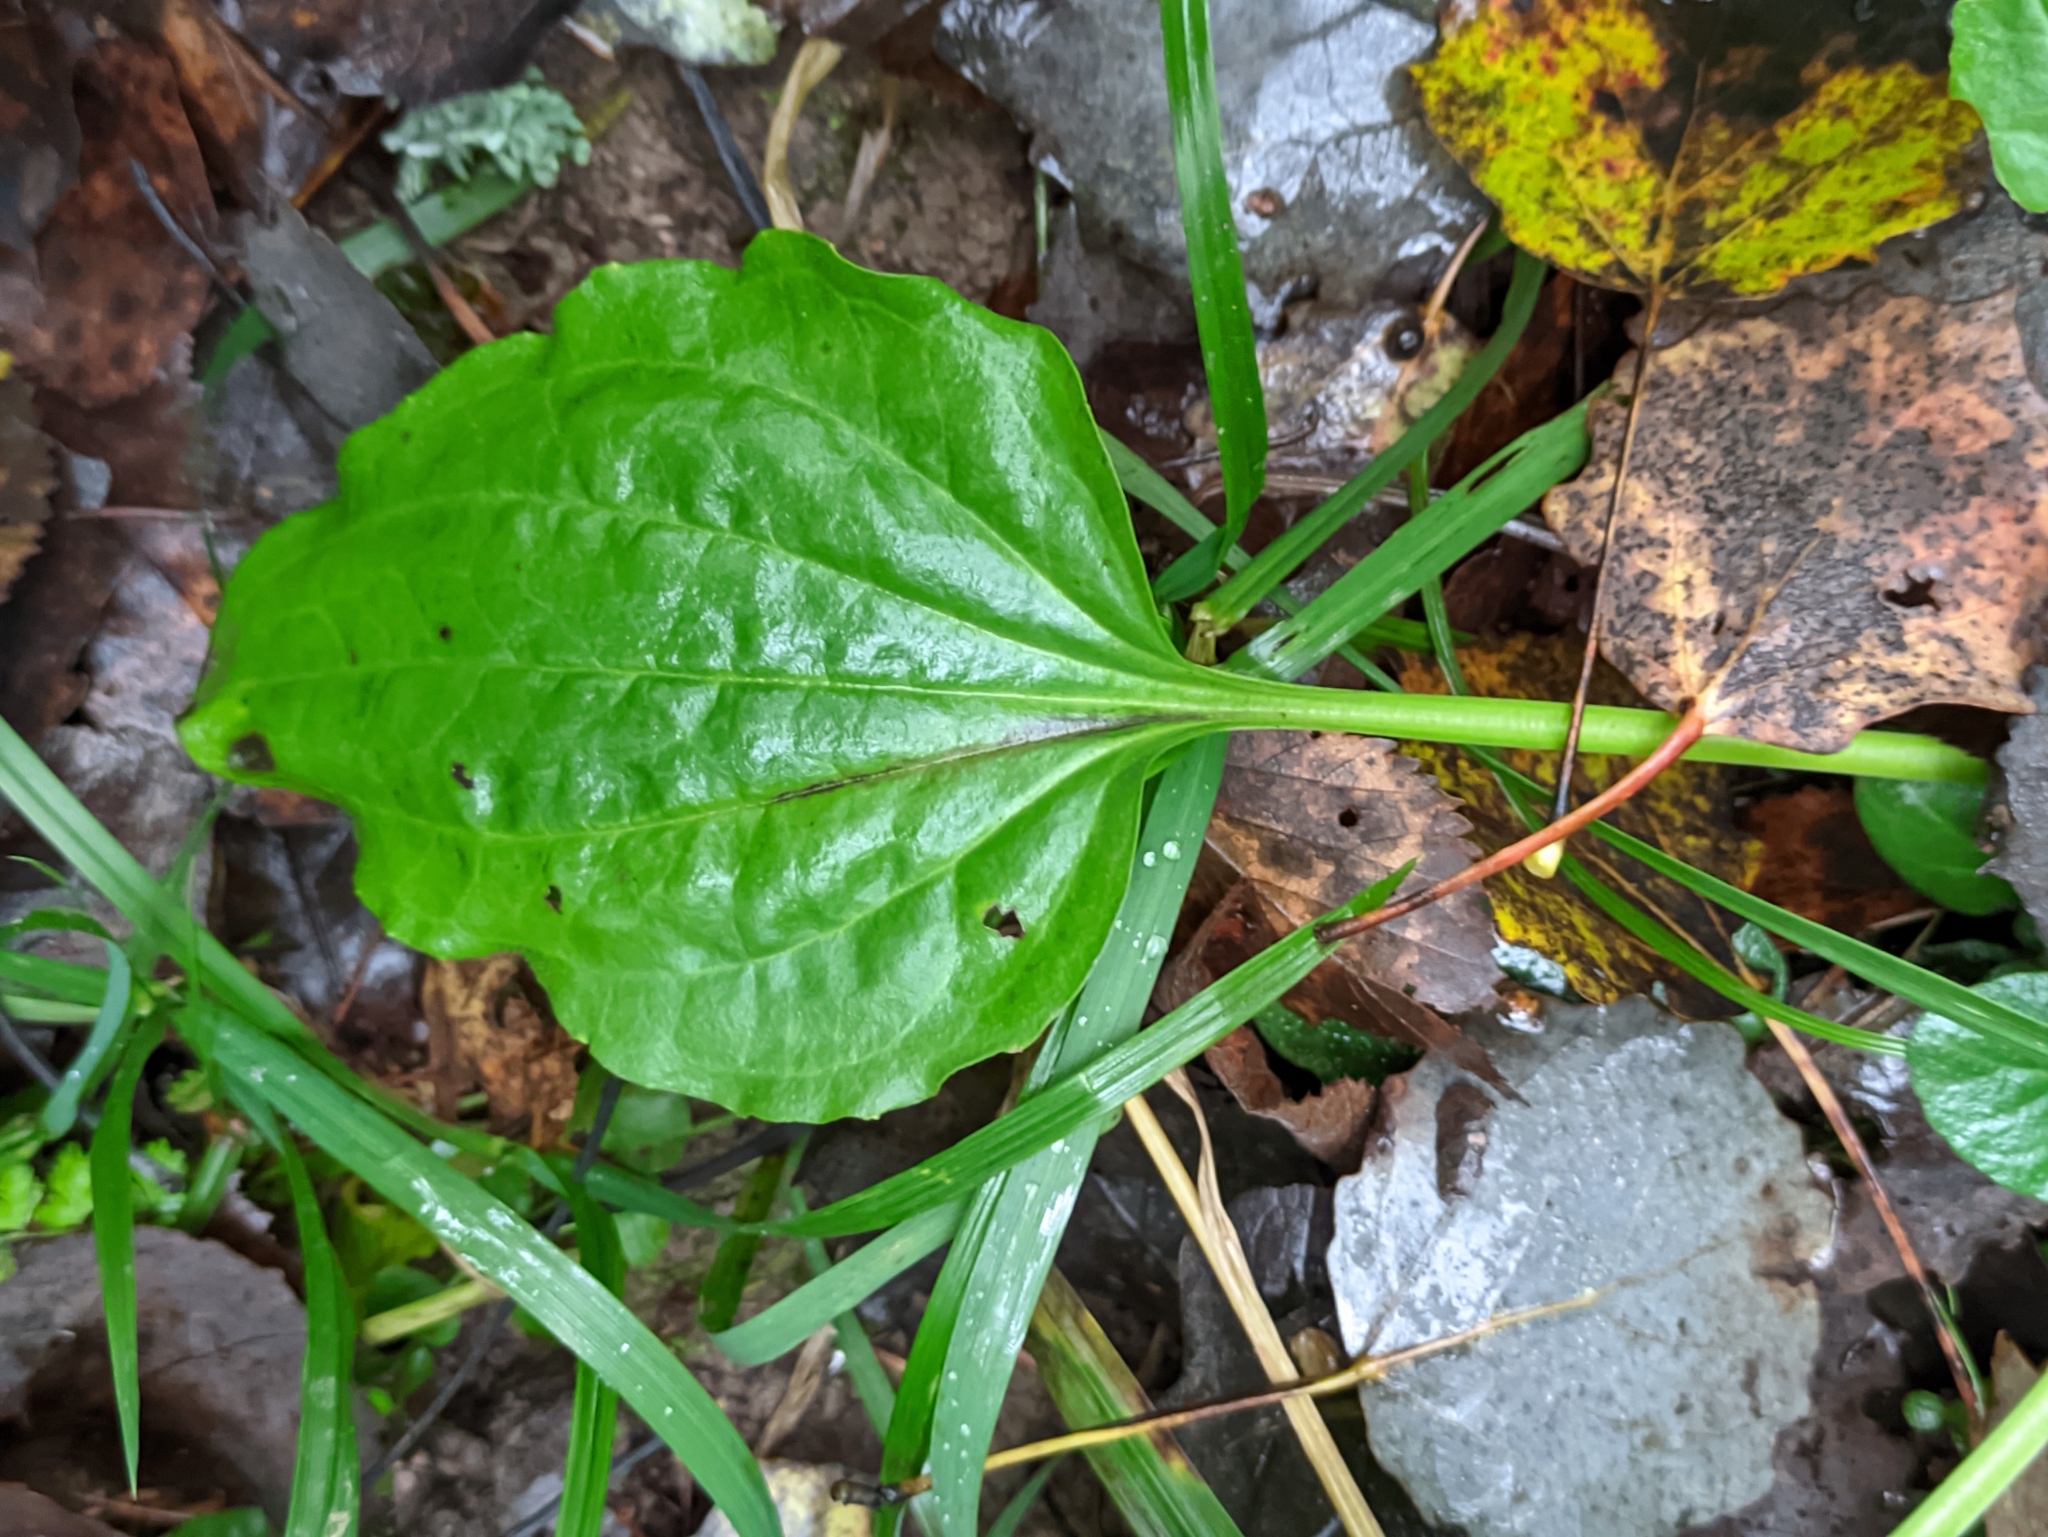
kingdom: Plantae
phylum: Tracheophyta
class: Magnoliopsida
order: Lamiales
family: Plantaginaceae
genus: Plantago
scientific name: Plantago major
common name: Common plantain
